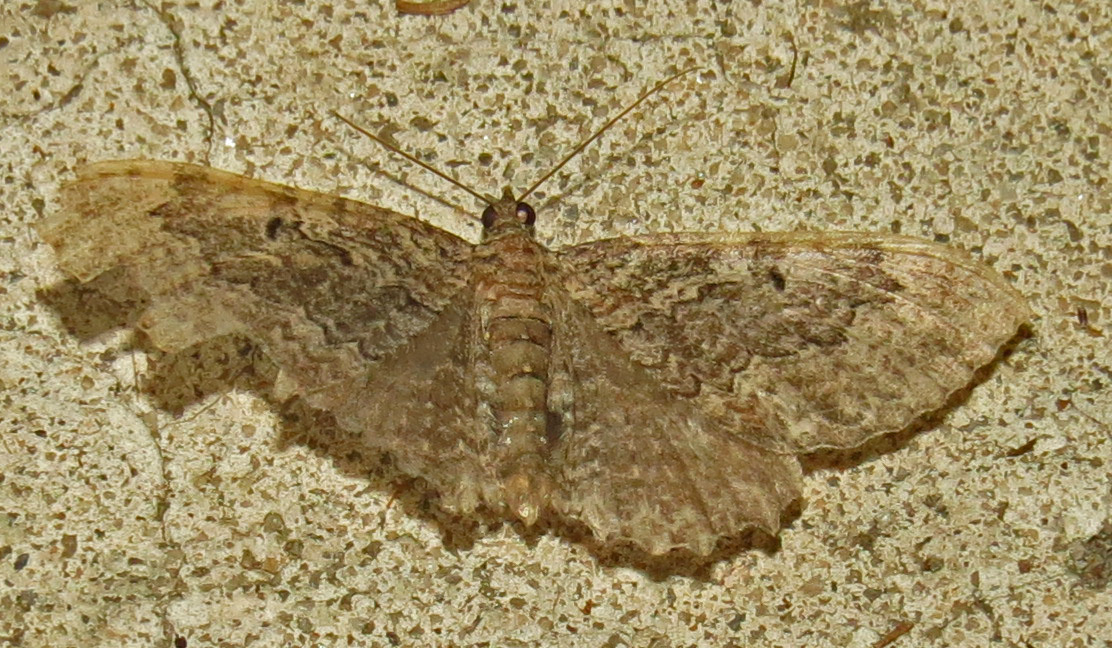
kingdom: Animalia
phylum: Arthropoda
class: Insecta
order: Lepidoptera
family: Geometridae
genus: Rheumaptera
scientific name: Rheumaptera
